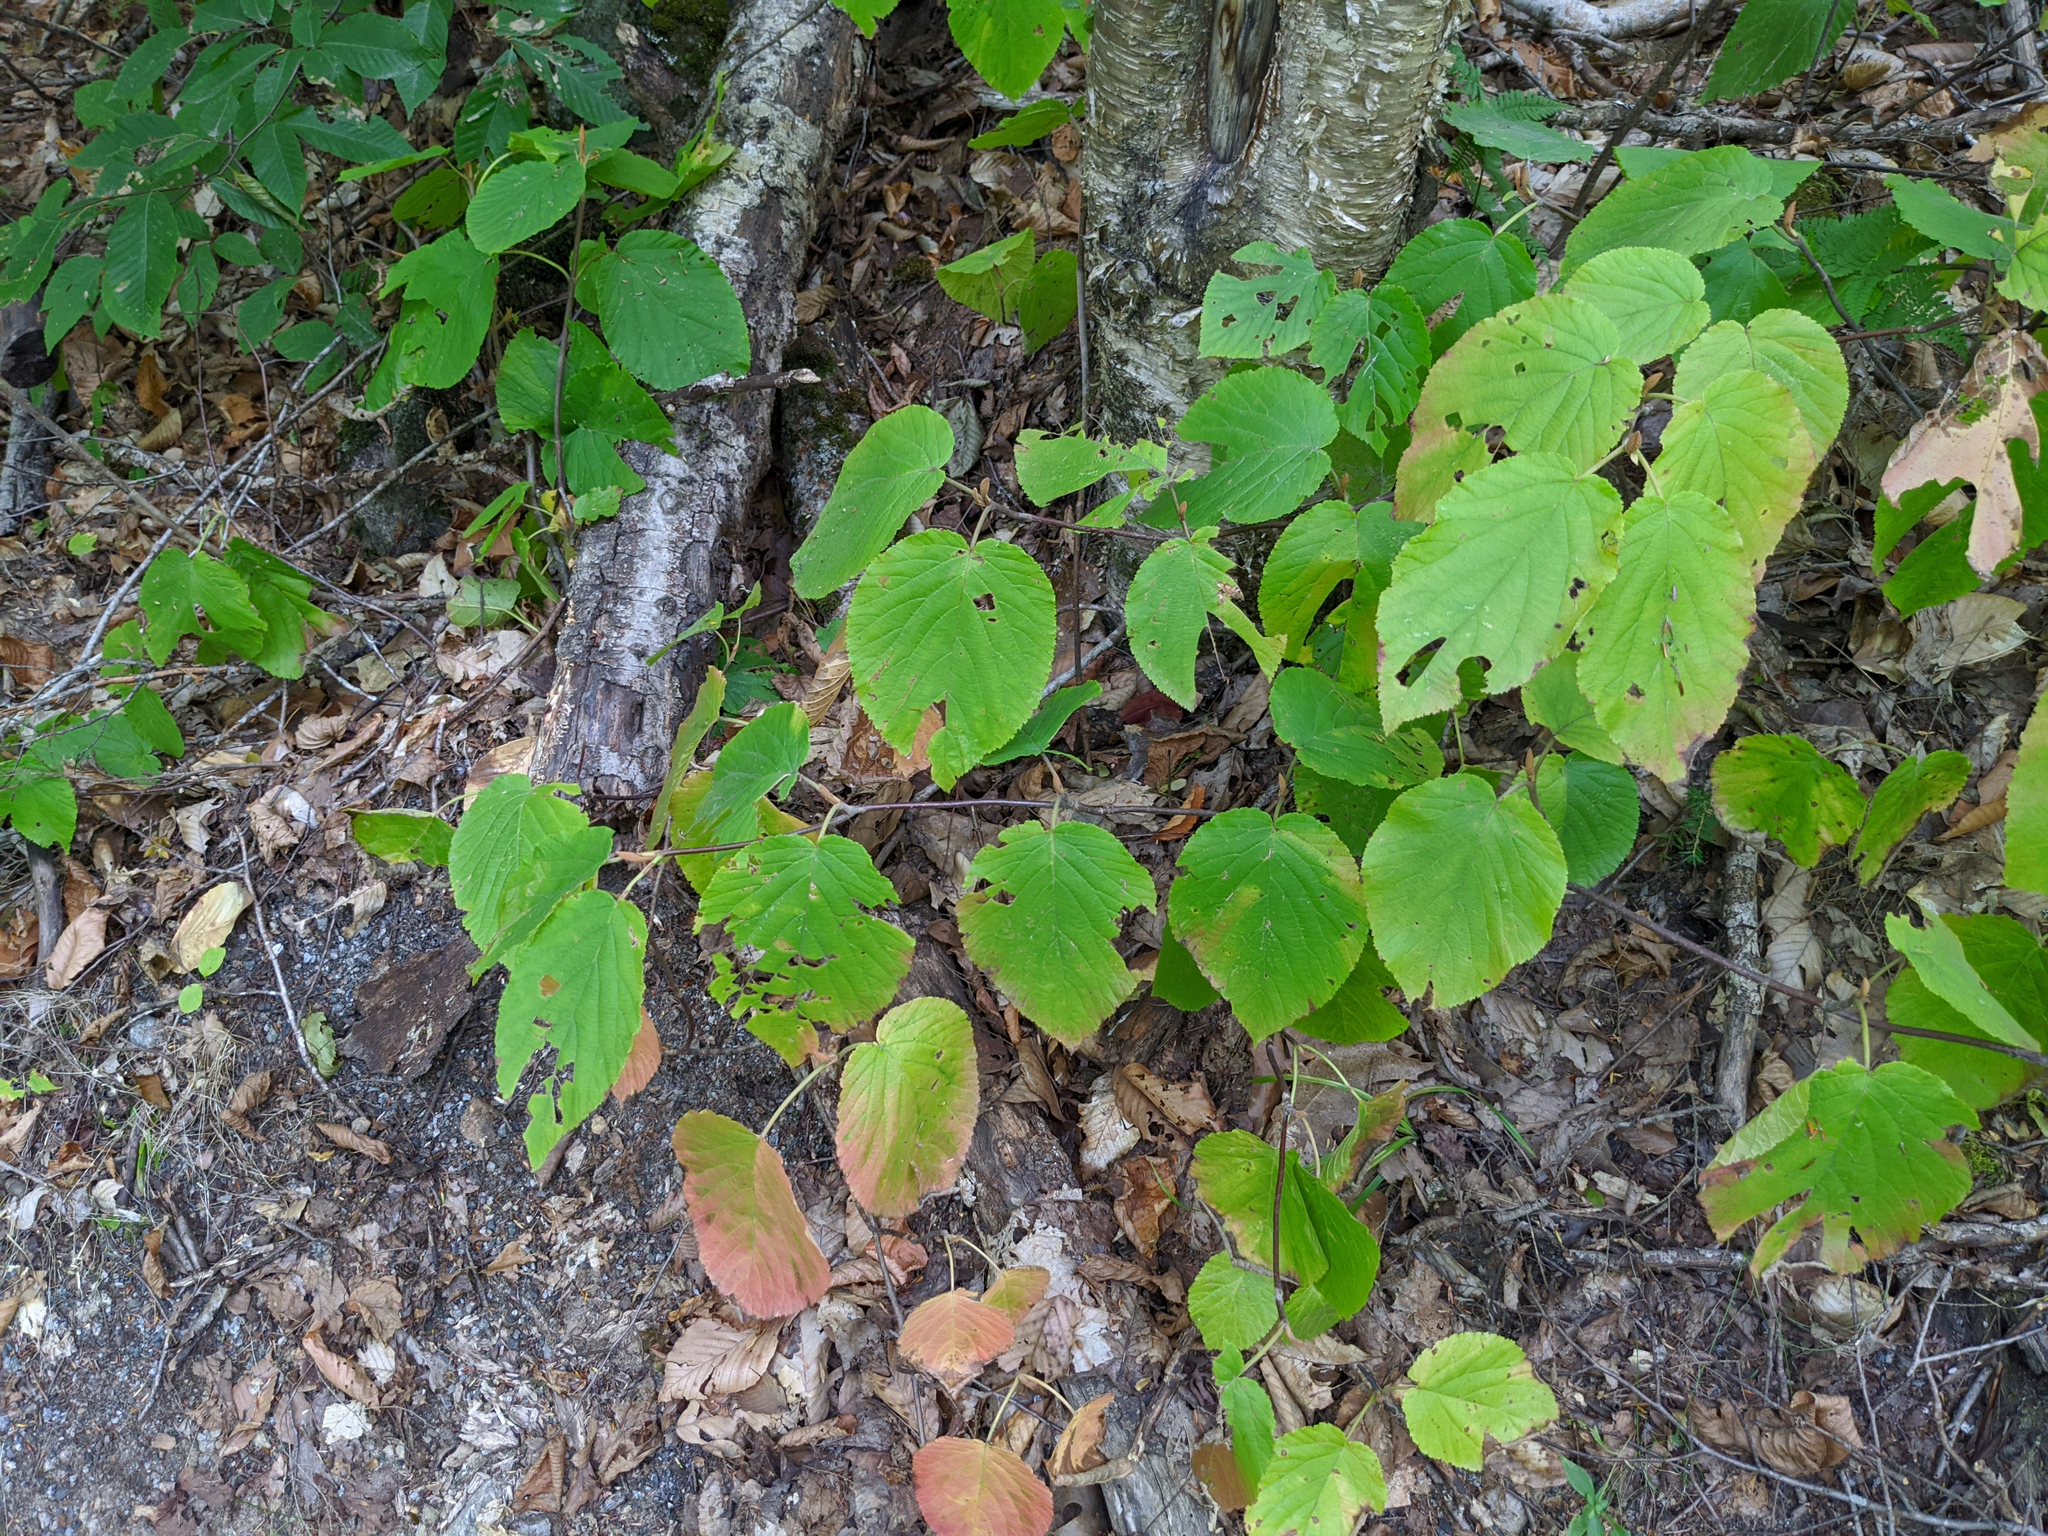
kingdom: Plantae
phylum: Tracheophyta
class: Magnoliopsida
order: Dipsacales
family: Viburnaceae
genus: Viburnum
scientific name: Viburnum lantanoides
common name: Hobblebush
